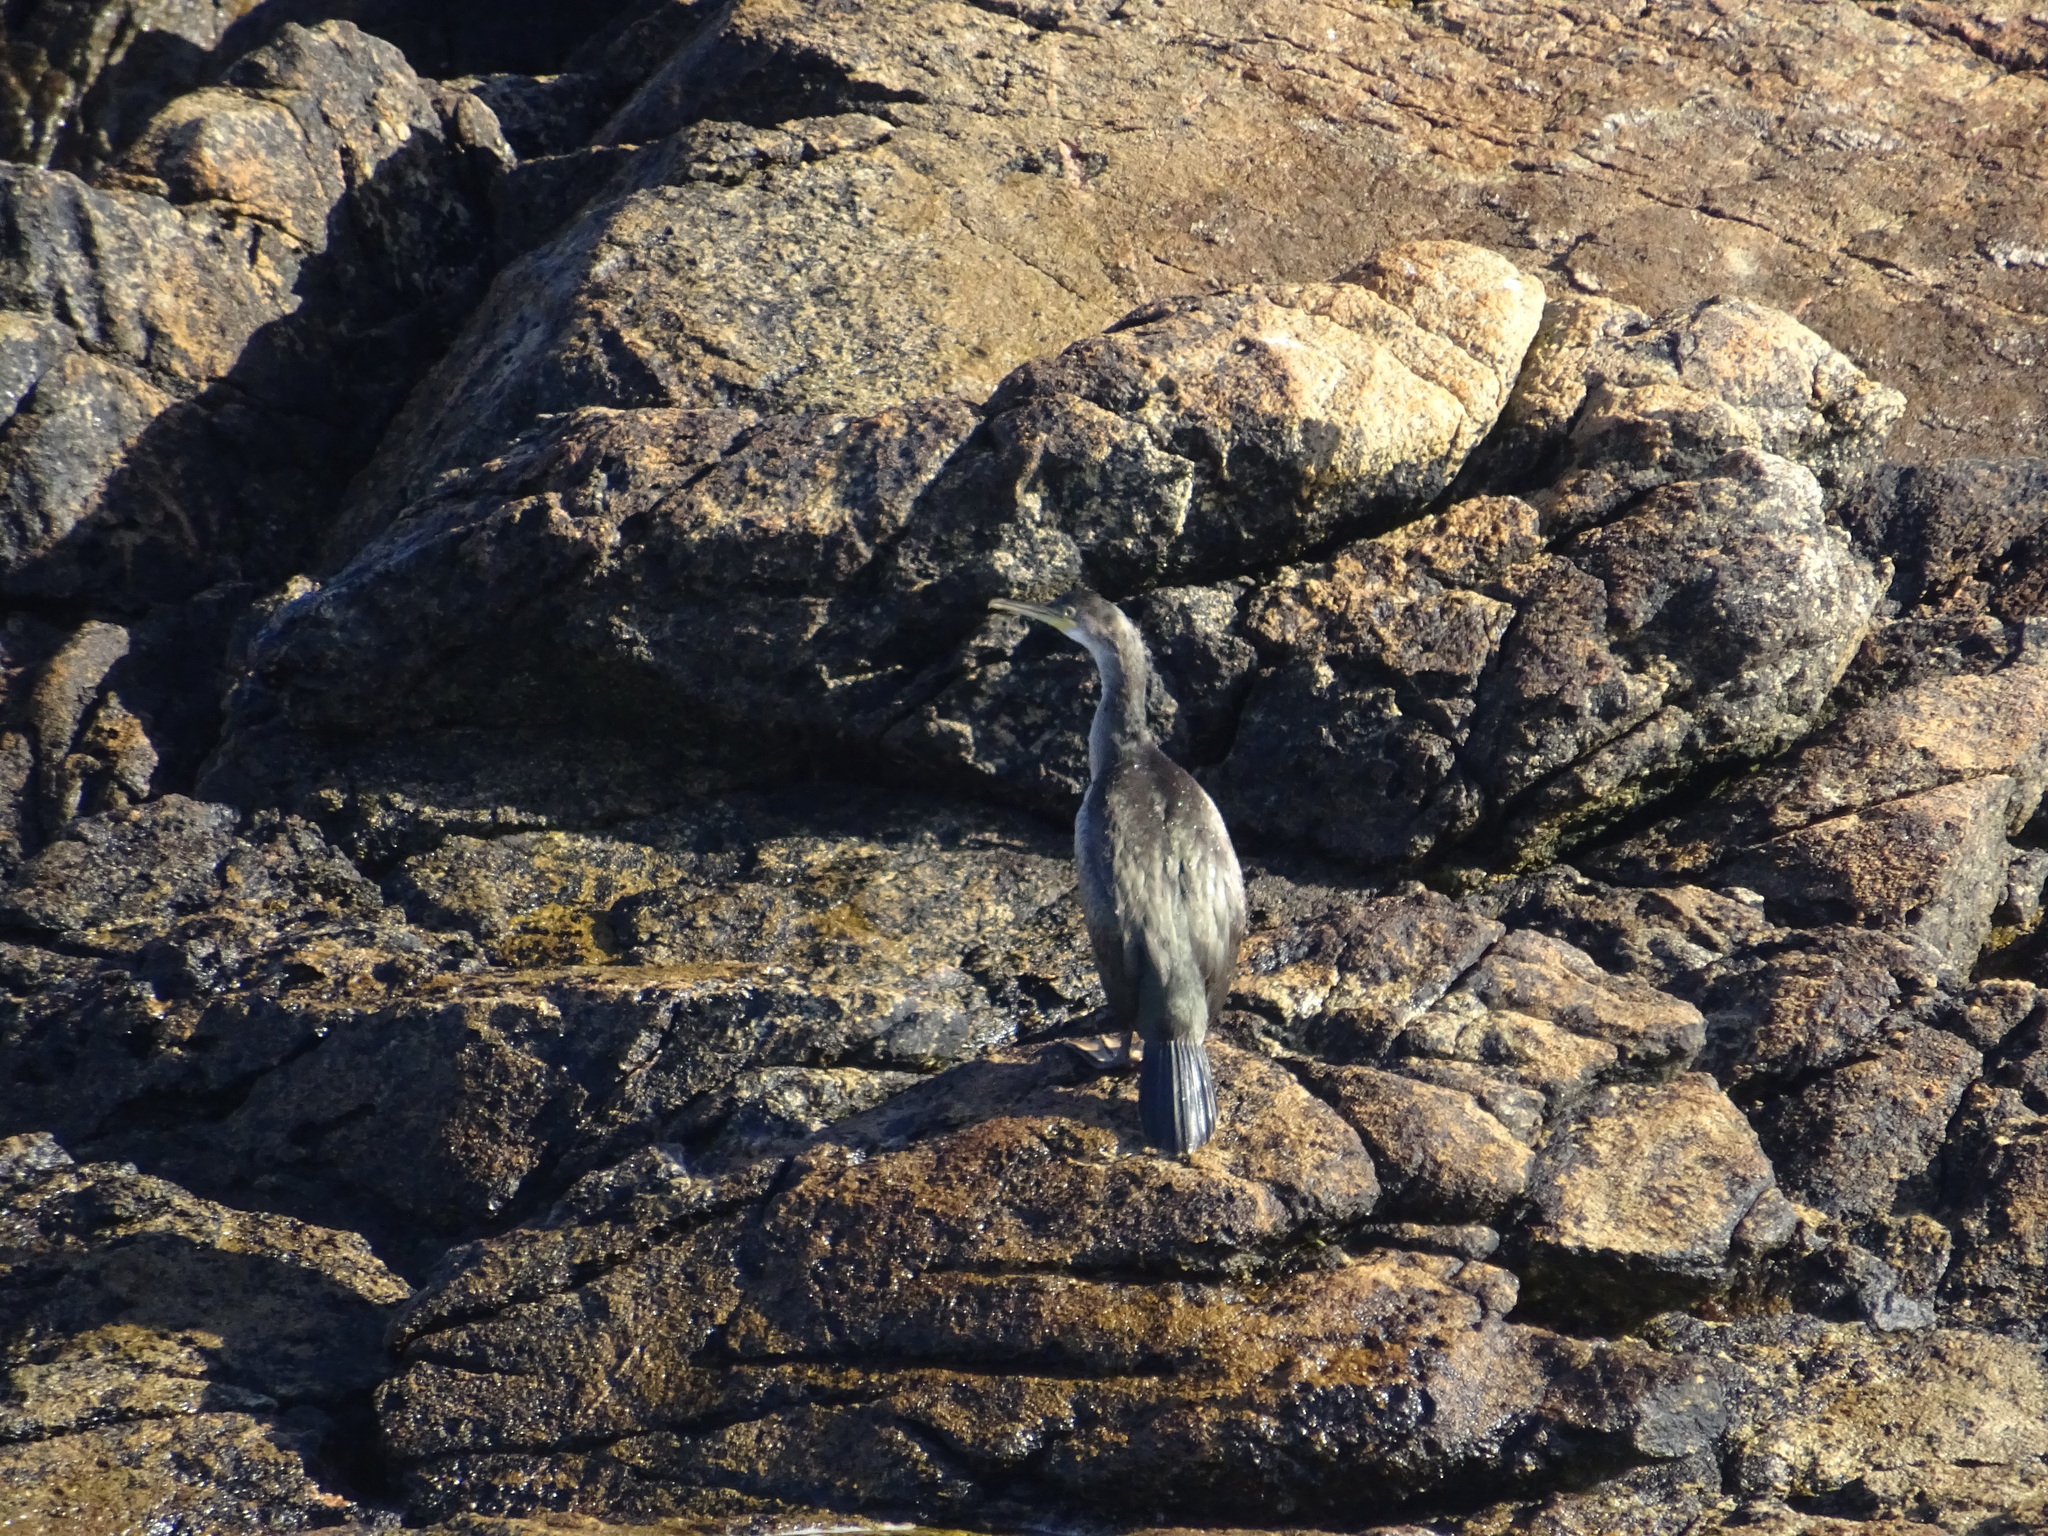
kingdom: Animalia
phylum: Chordata
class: Aves
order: Suliformes
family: Phalacrocoracidae
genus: Phalacrocorax
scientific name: Phalacrocorax aristotelis
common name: European shag
